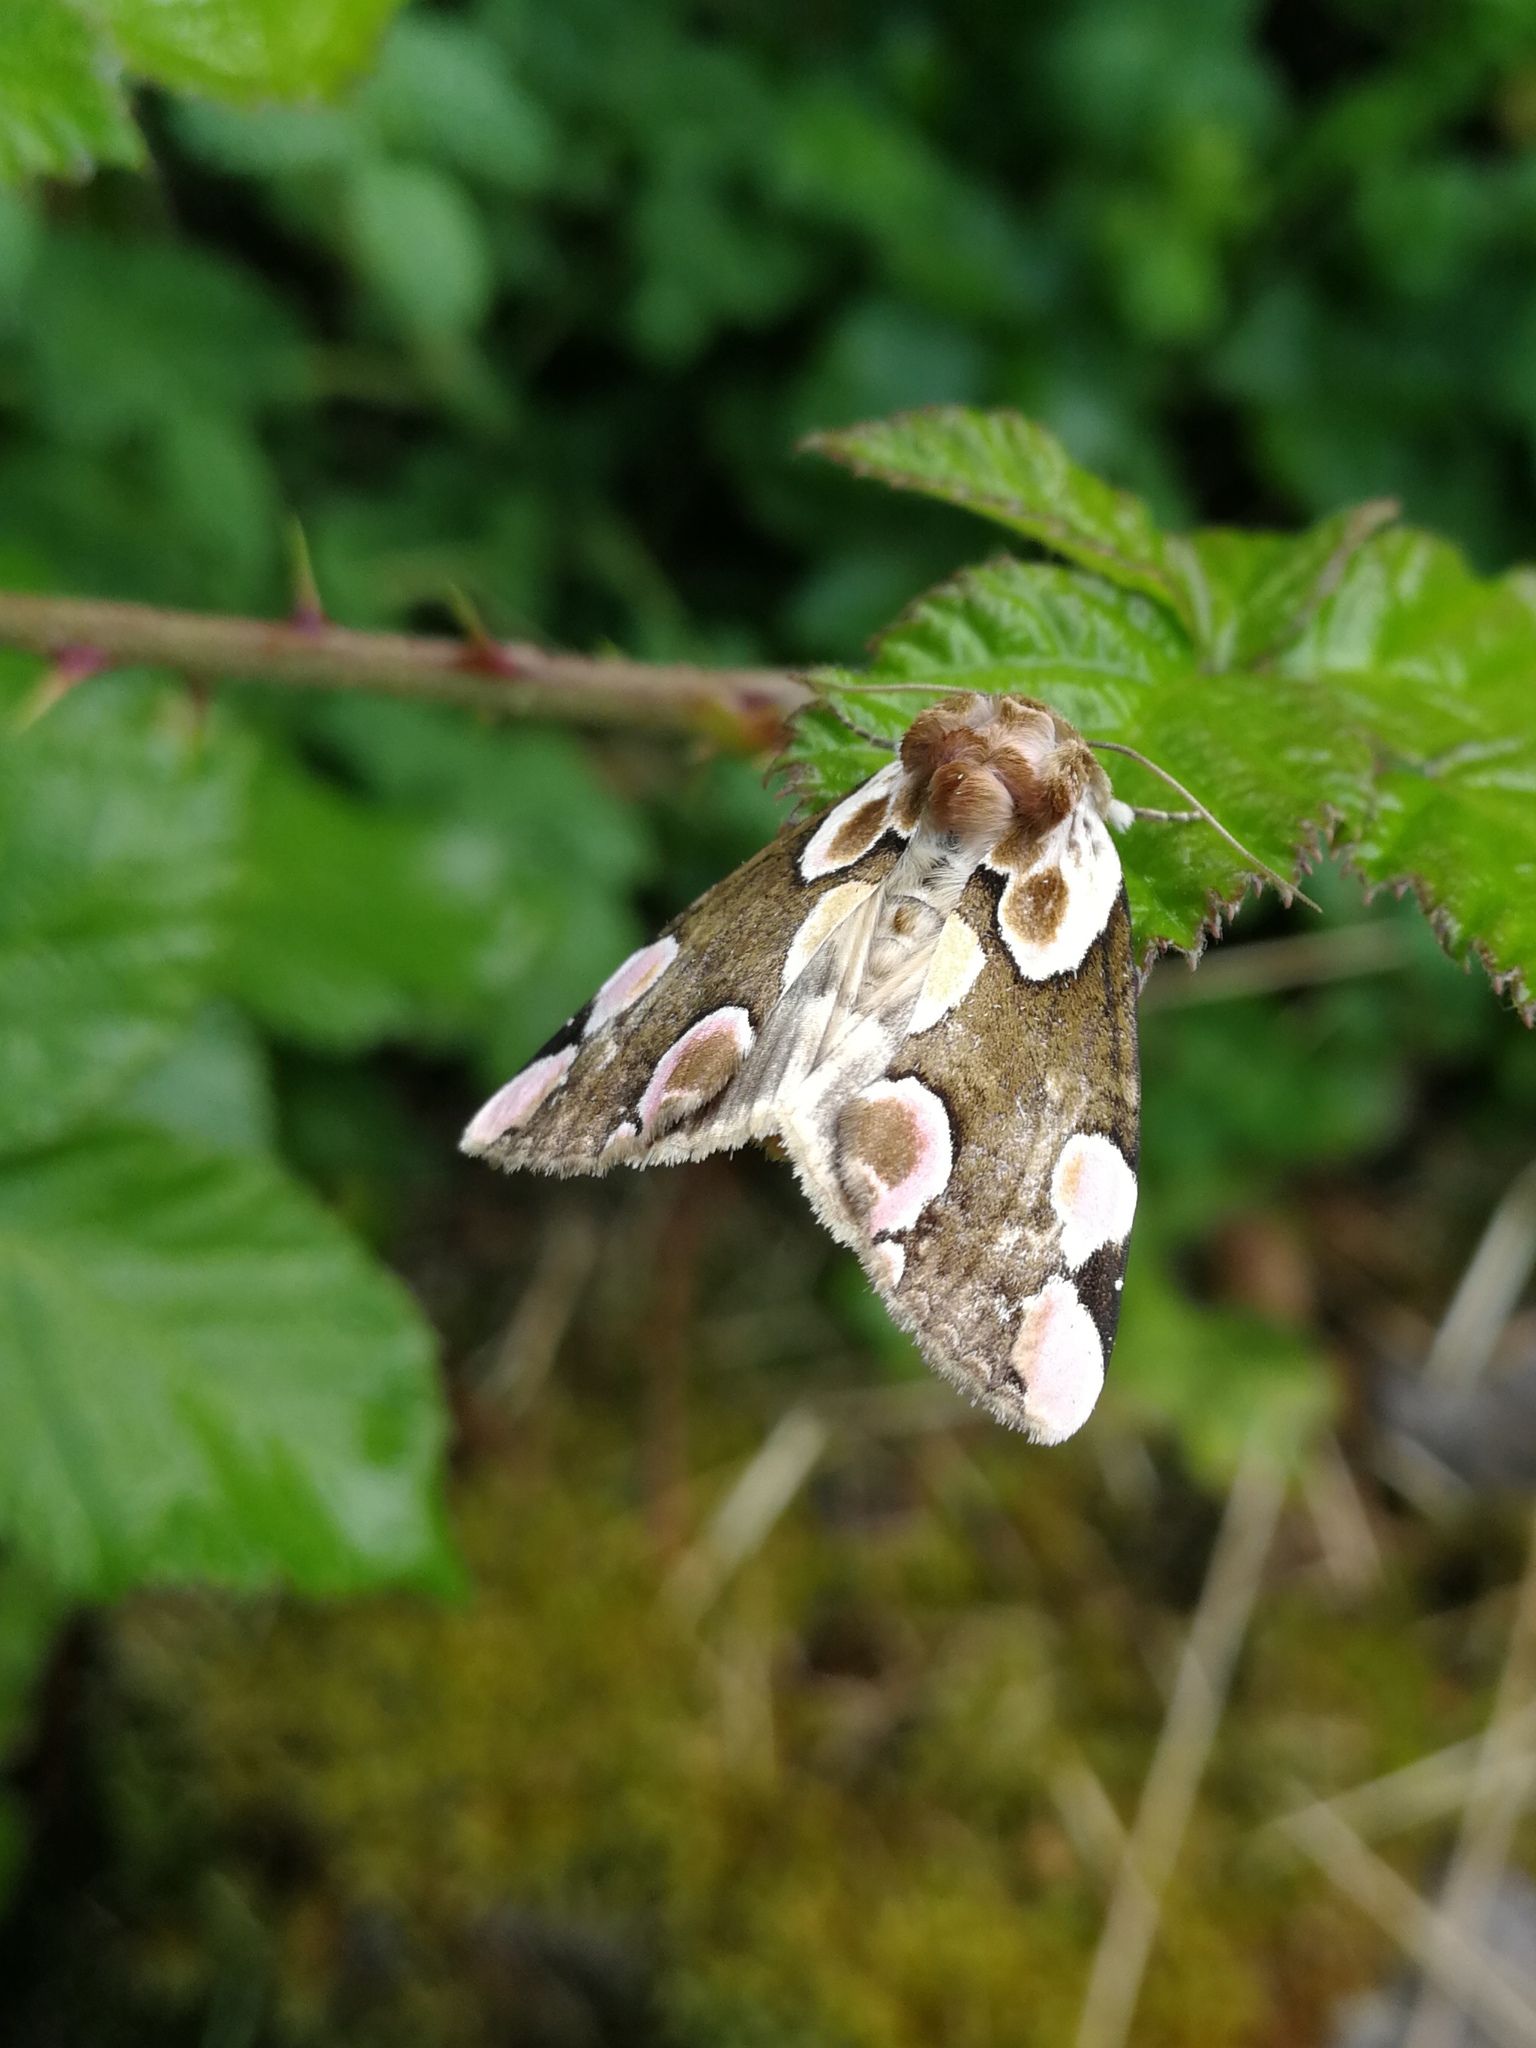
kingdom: Animalia
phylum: Arthropoda
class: Insecta
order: Lepidoptera
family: Drepanidae
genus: Thyatira
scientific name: Thyatira batis
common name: Peach blossom
